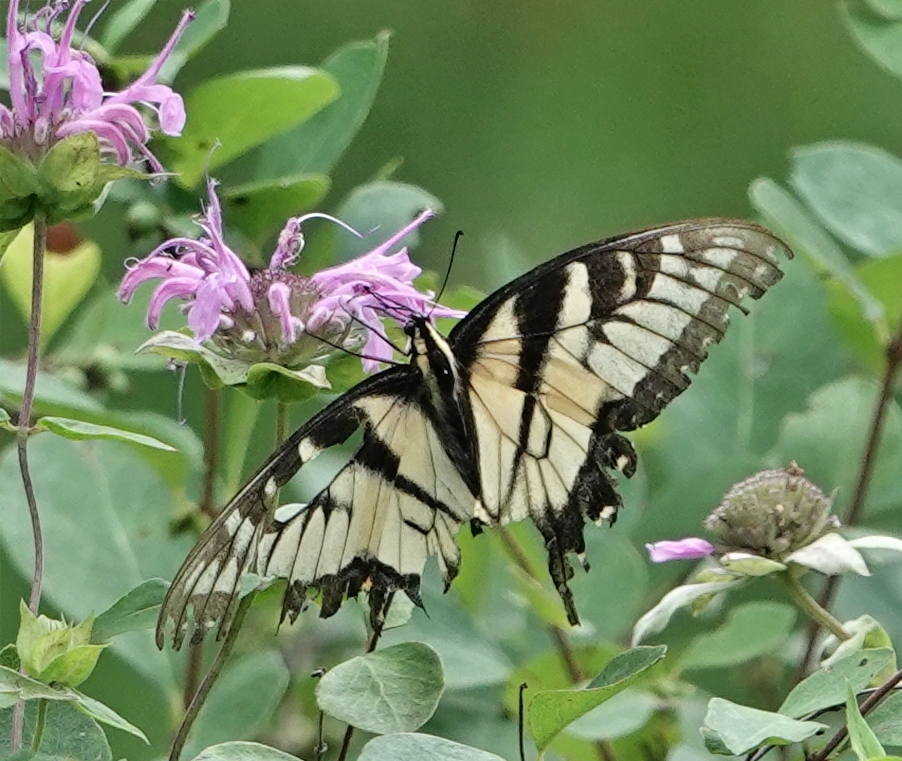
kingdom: Animalia
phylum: Arthropoda
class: Insecta
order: Lepidoptera
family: Papilionidae
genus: Papilio
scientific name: Papilio glaucus
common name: Tiger swallowtail
